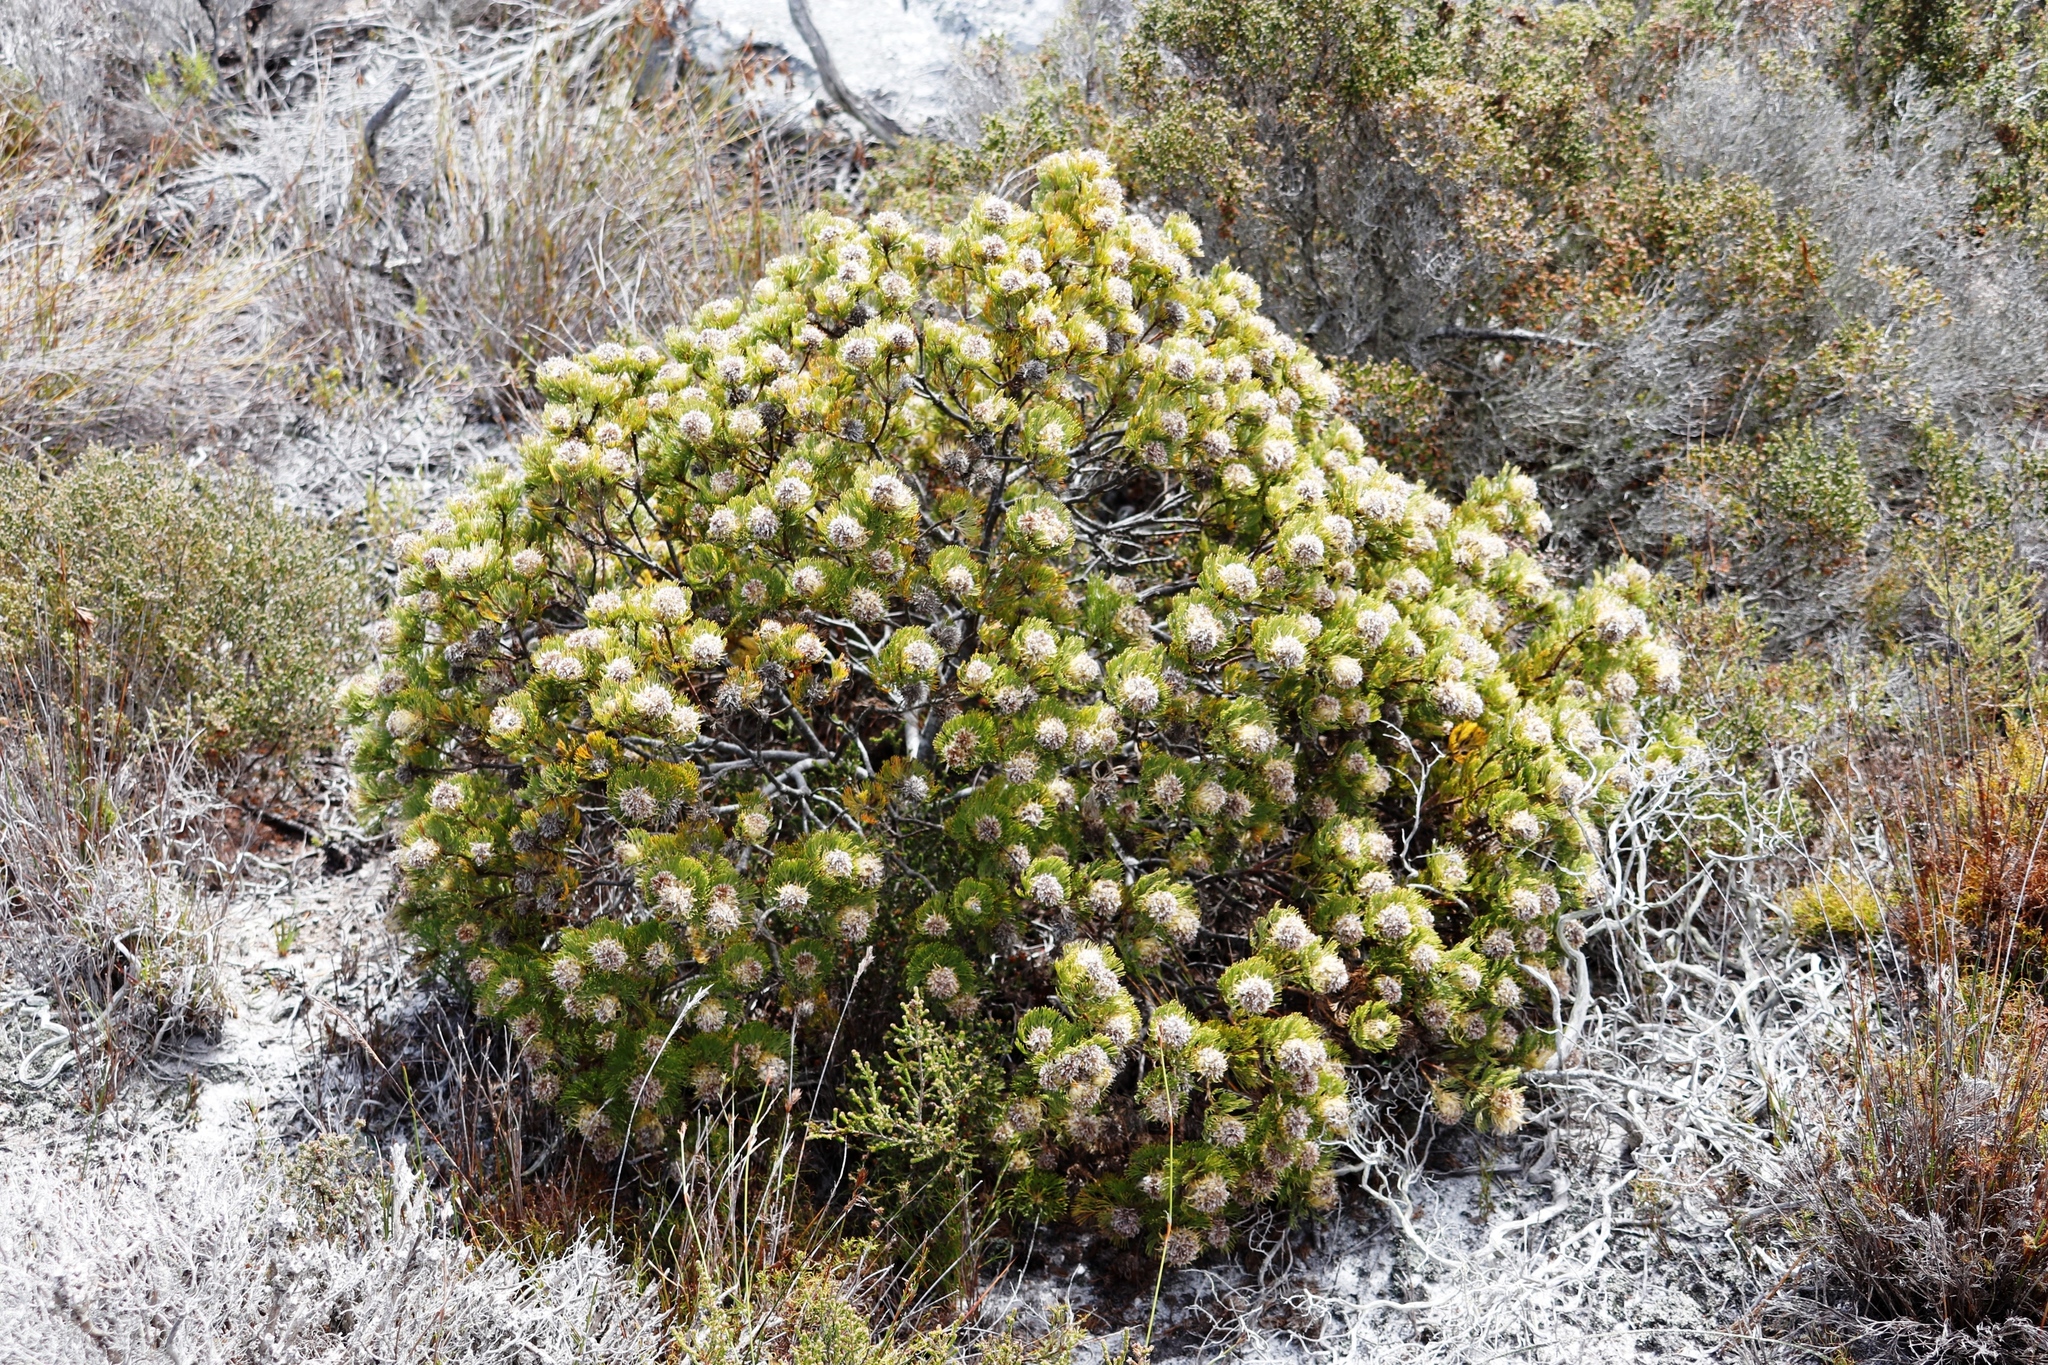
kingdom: Plantae
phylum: Tracheophyta
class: Magnoliopsida
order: Proteales
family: Proteaceae
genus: Serruria
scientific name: Serruria villosa
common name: Golden spiderhead
